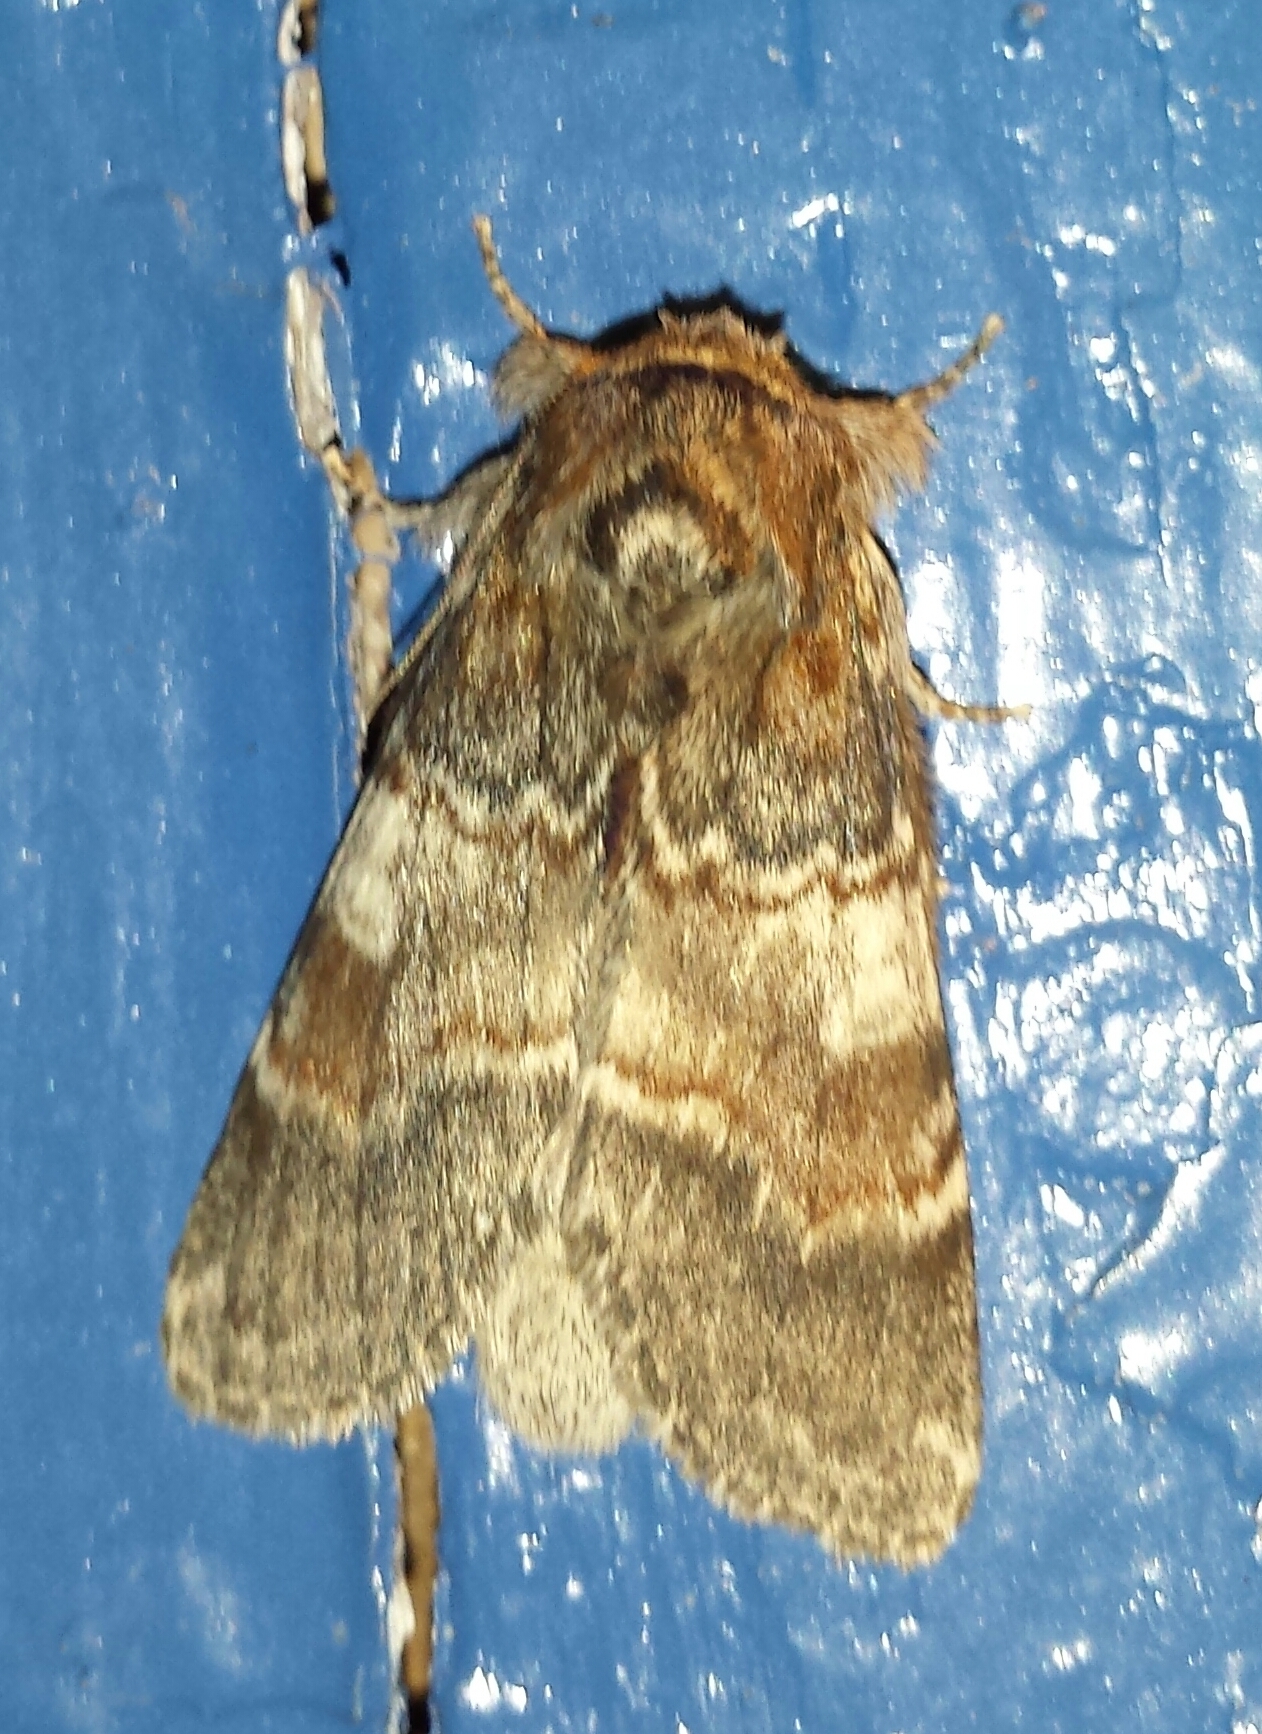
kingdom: Animalia
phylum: Arthropoda
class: Insecta
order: Lepidoptera
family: Notodontidae
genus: Peridea
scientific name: Peridea ferruginea
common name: Chocolate prominent
